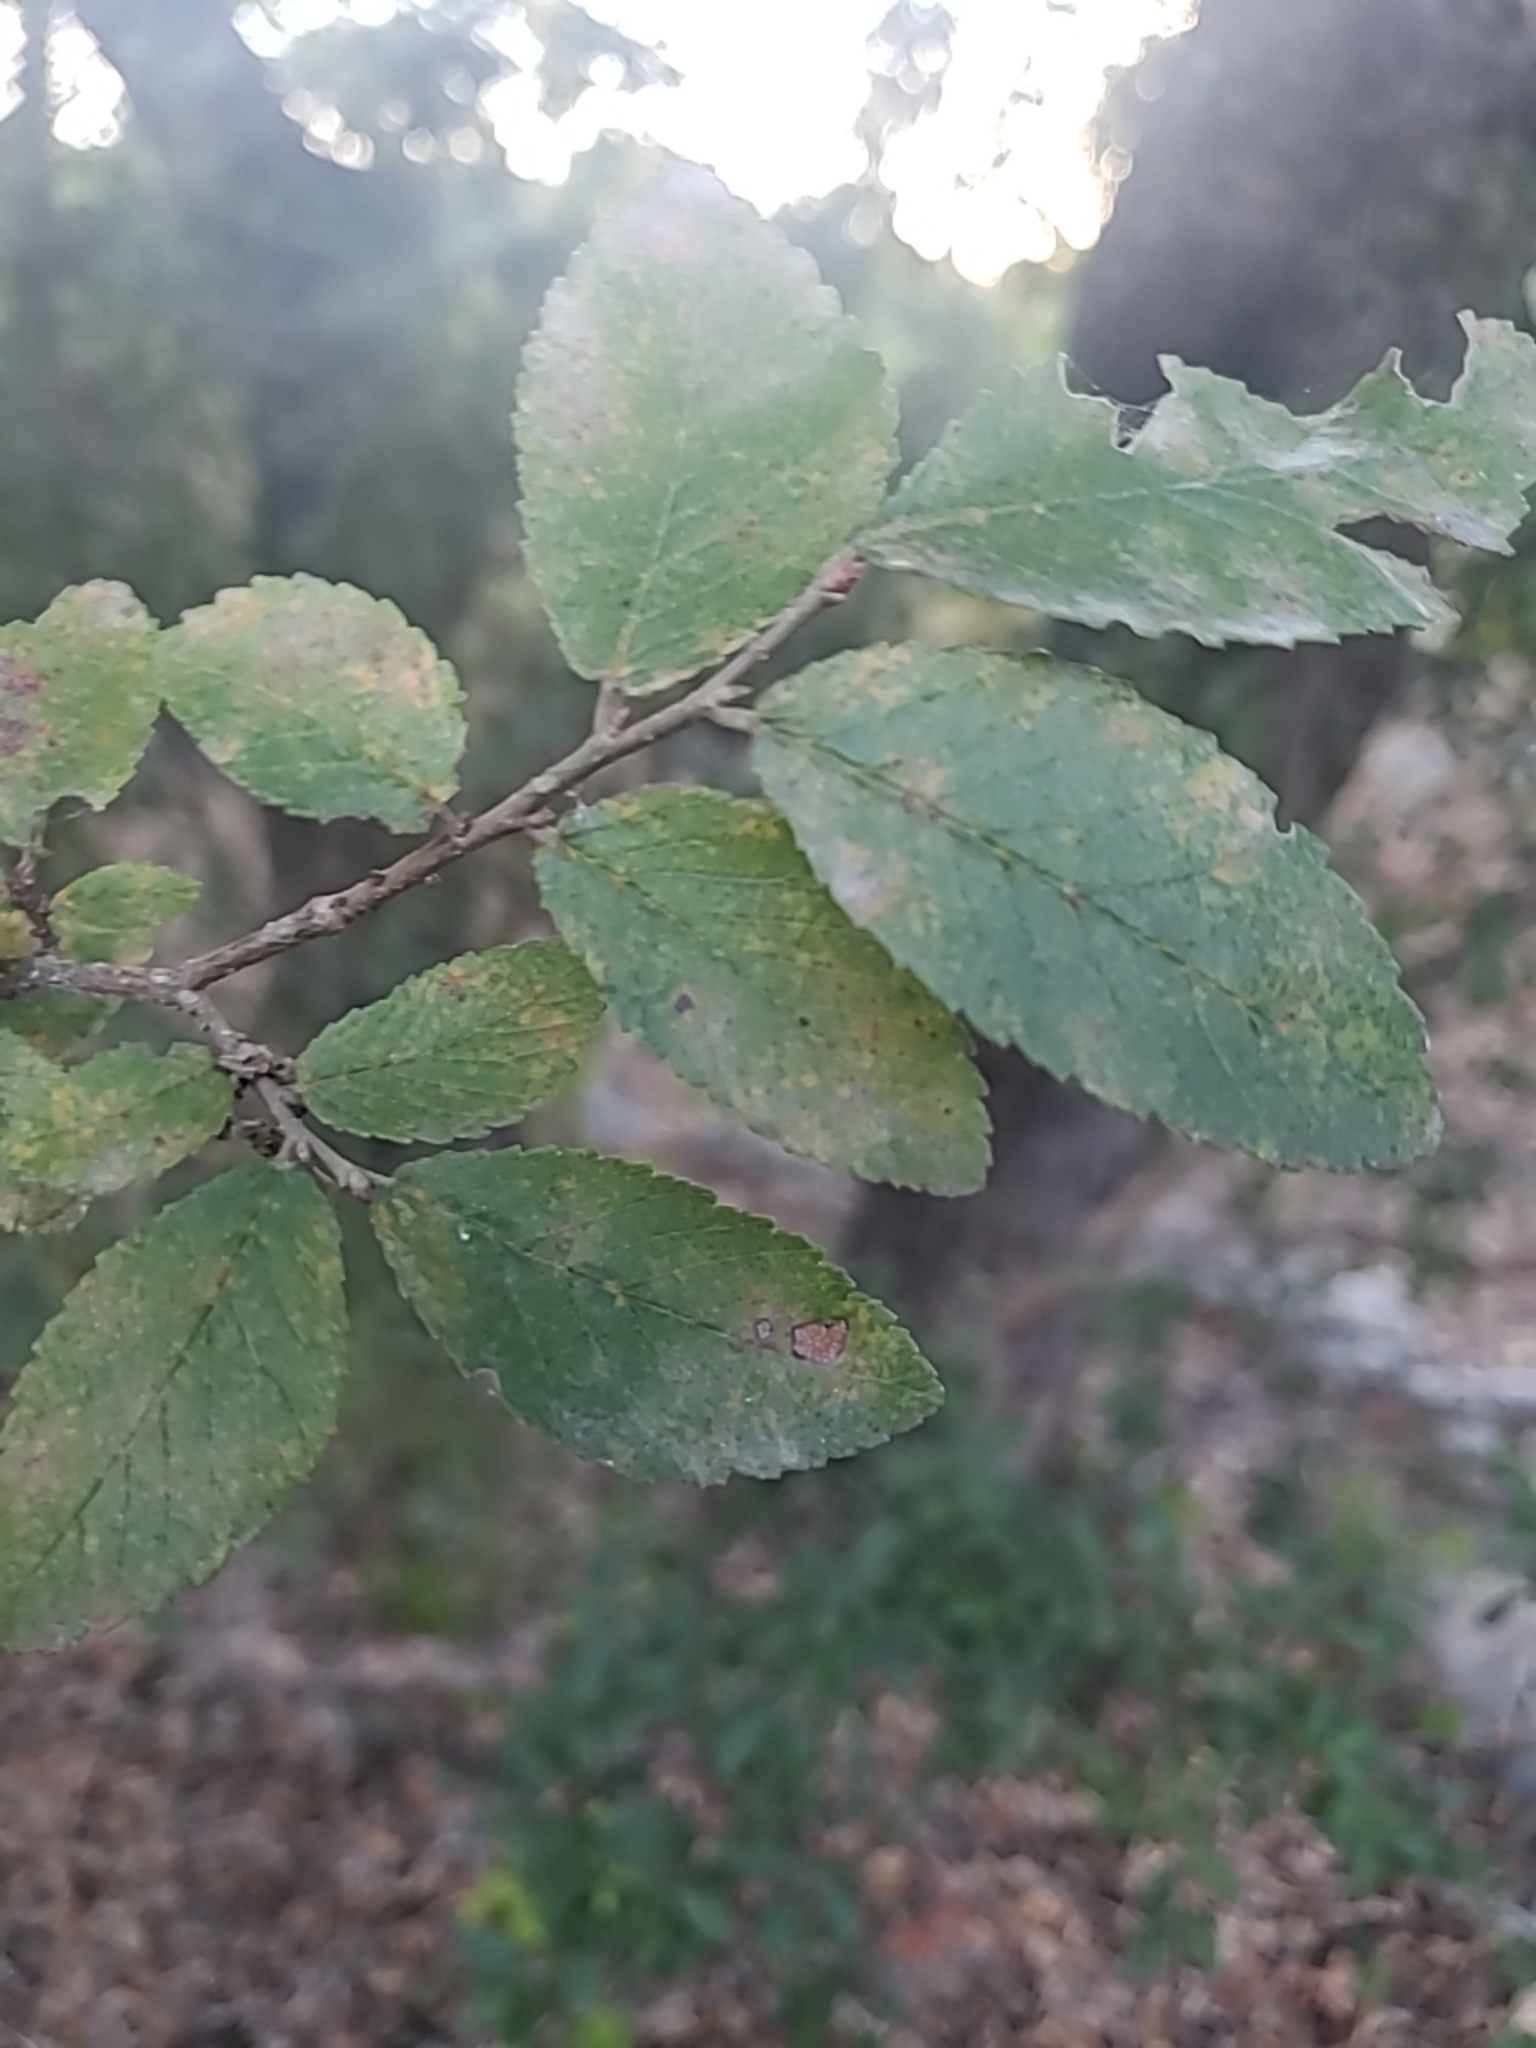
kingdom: Plantae
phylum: Tracheophyta
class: Magnoliopsida
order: Rosales
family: Ulmaceae
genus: Ulmus
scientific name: Ulmus crassifolia
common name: Basket elm
